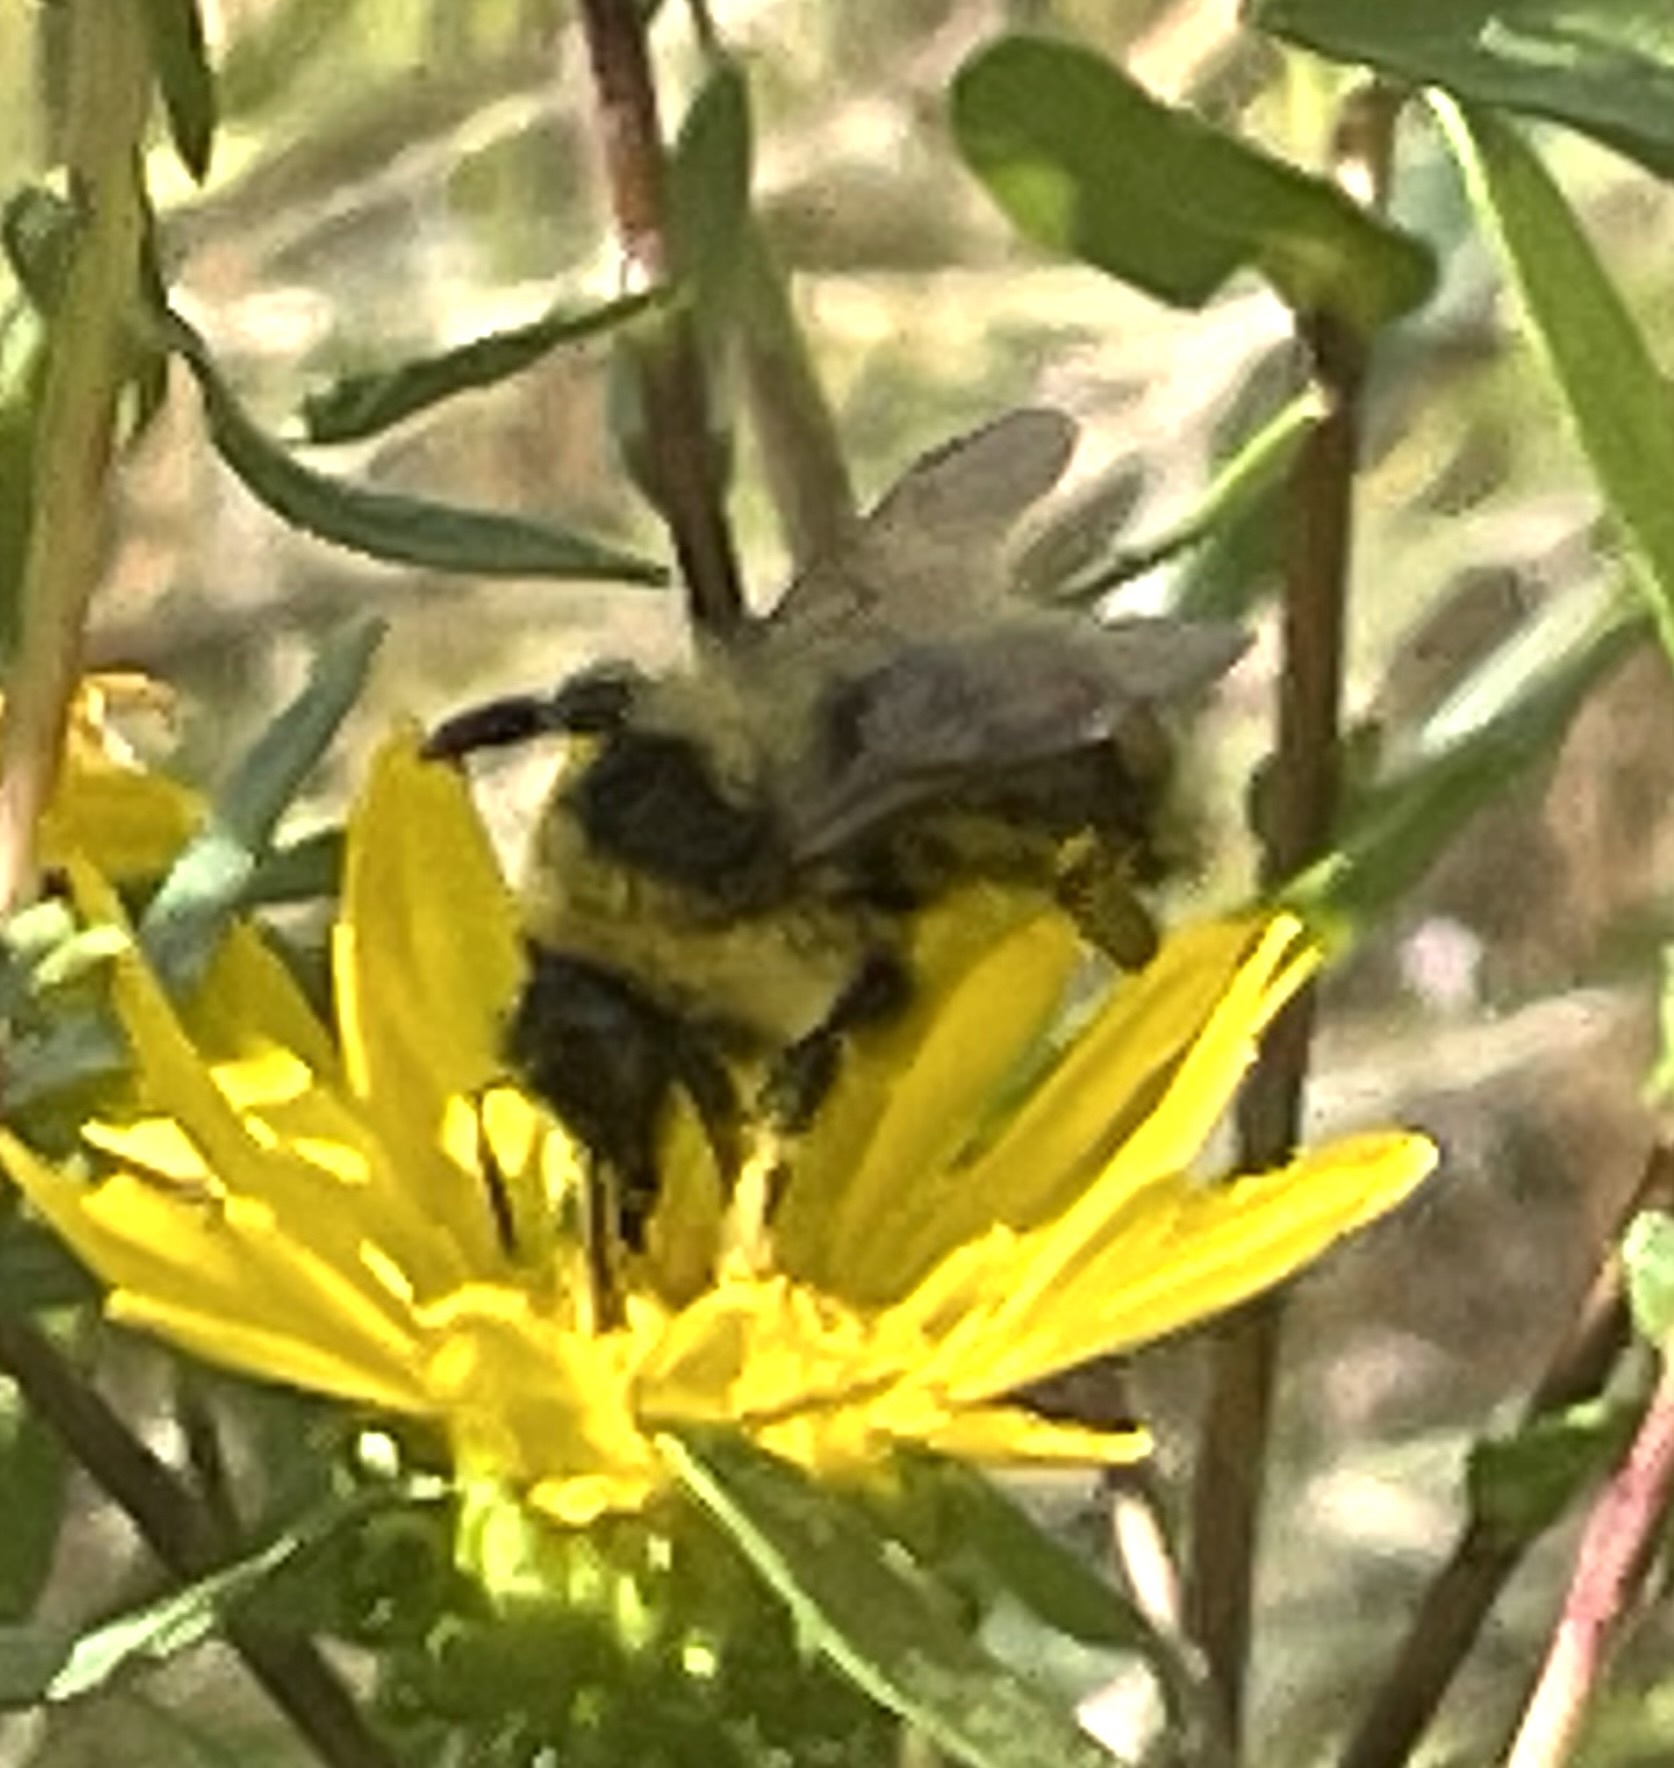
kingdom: Animalia
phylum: Arthropoda
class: Insecta
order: Hymenoptera
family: Apidae
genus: Bombus
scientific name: Bombus rufocinctus
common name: Red-belted bumble bee
